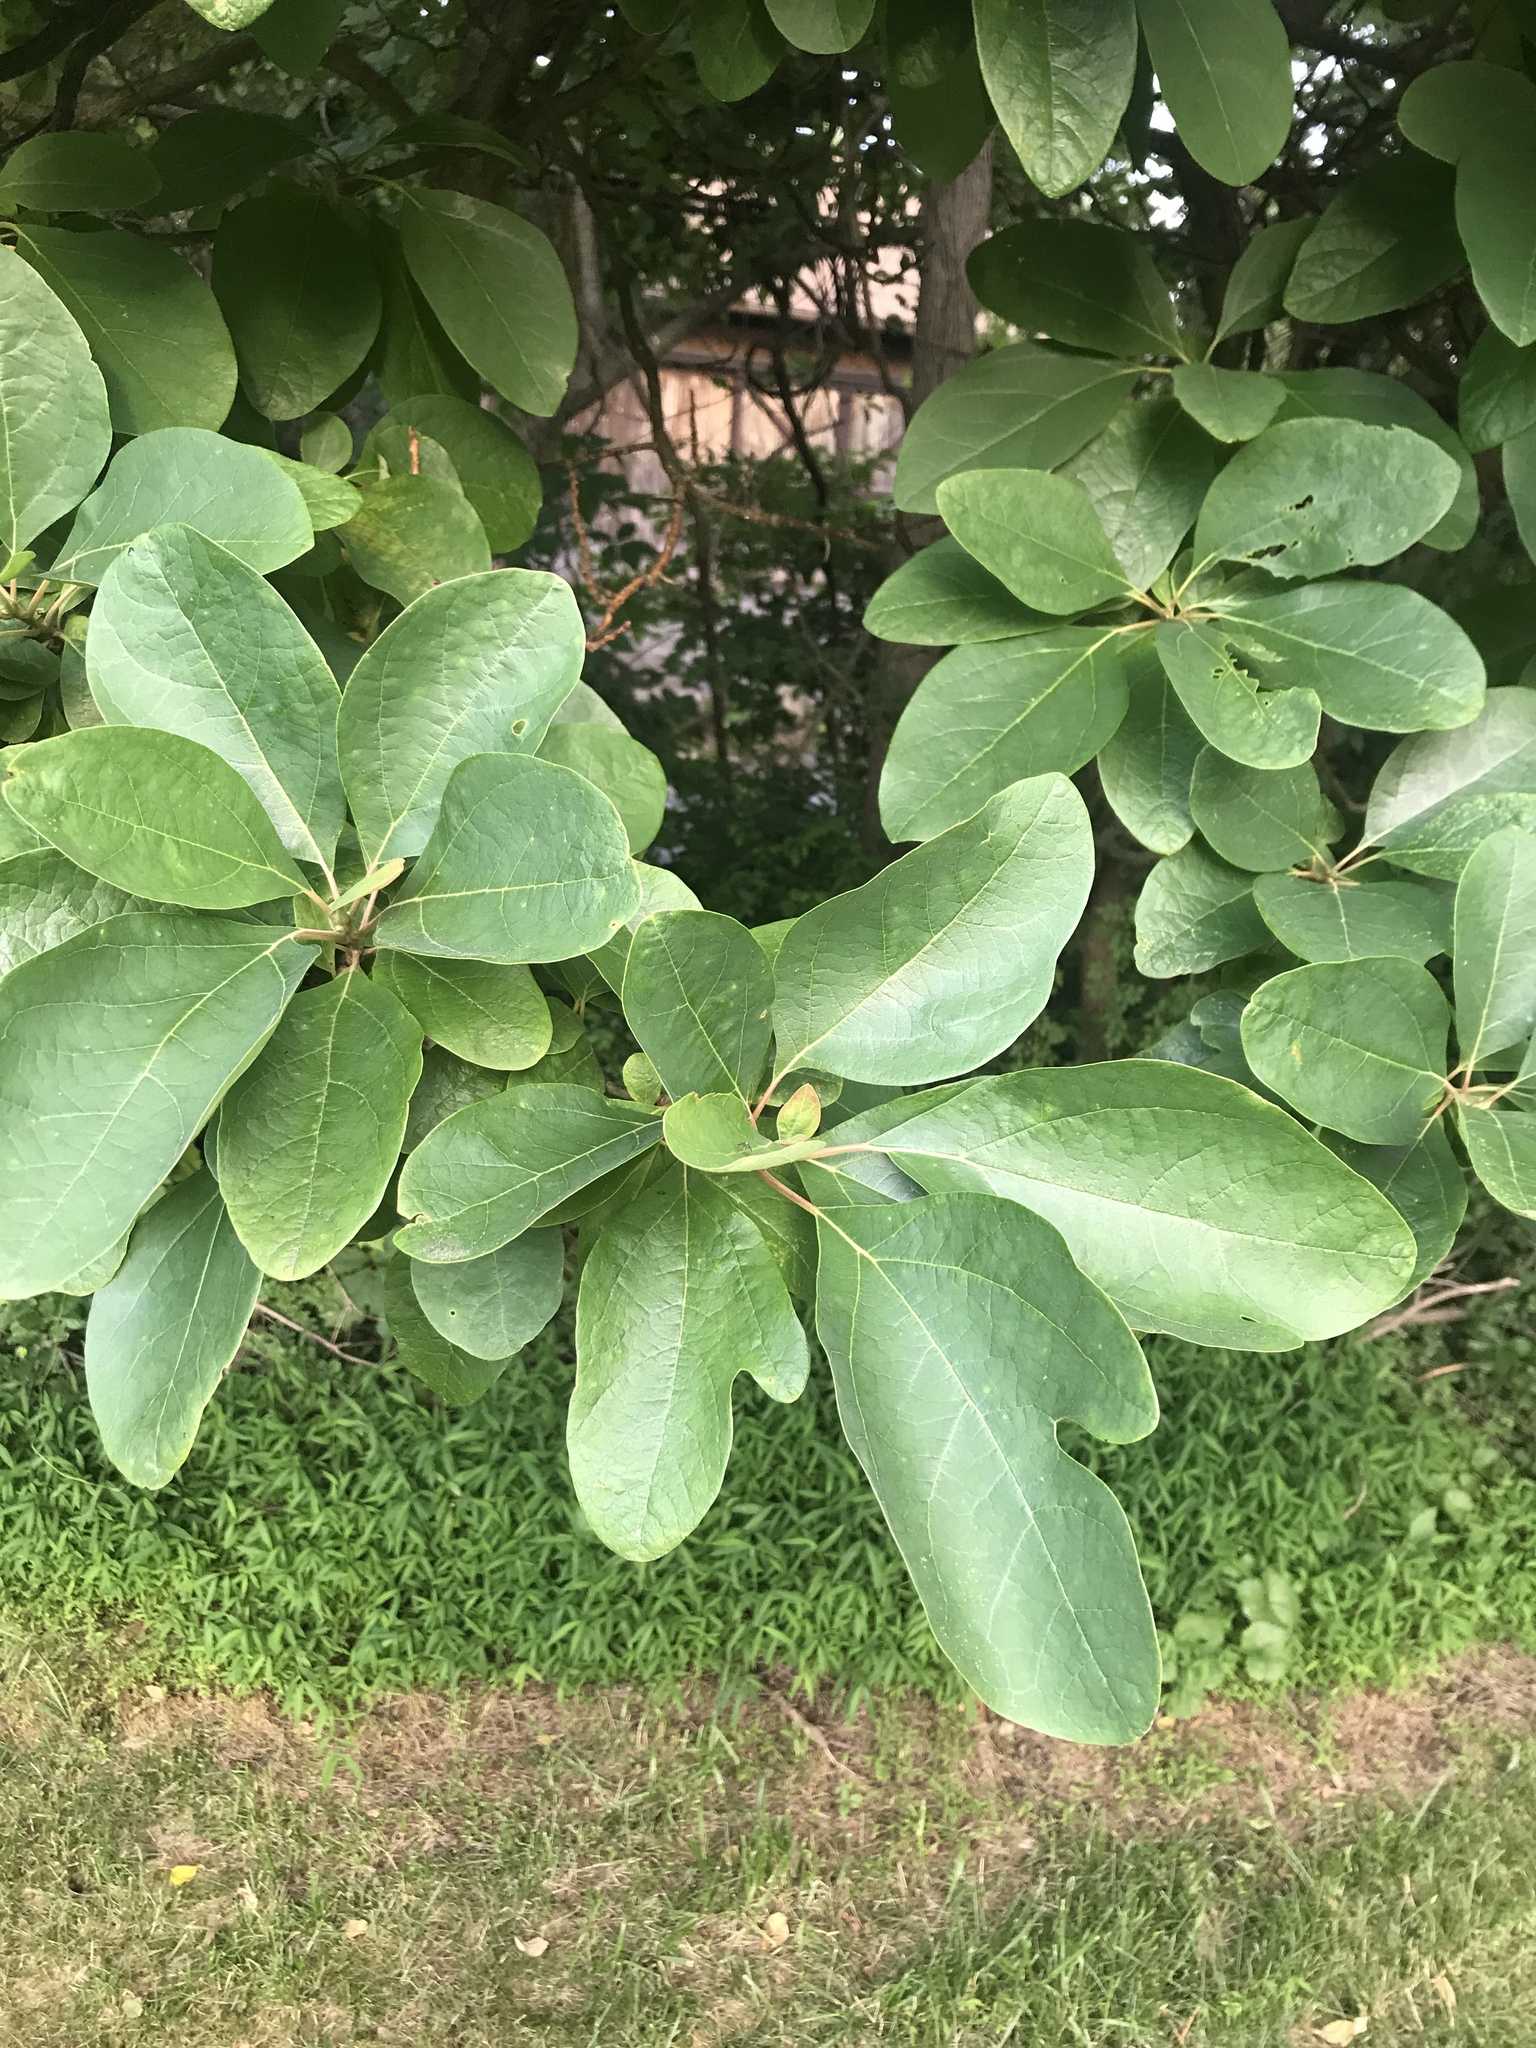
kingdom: Plantae
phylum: Tracheophyta
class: Magnoliopsida
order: Laurales
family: Lauraceae
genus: Sassafras
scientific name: Sassafras albidum
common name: Sassafras
